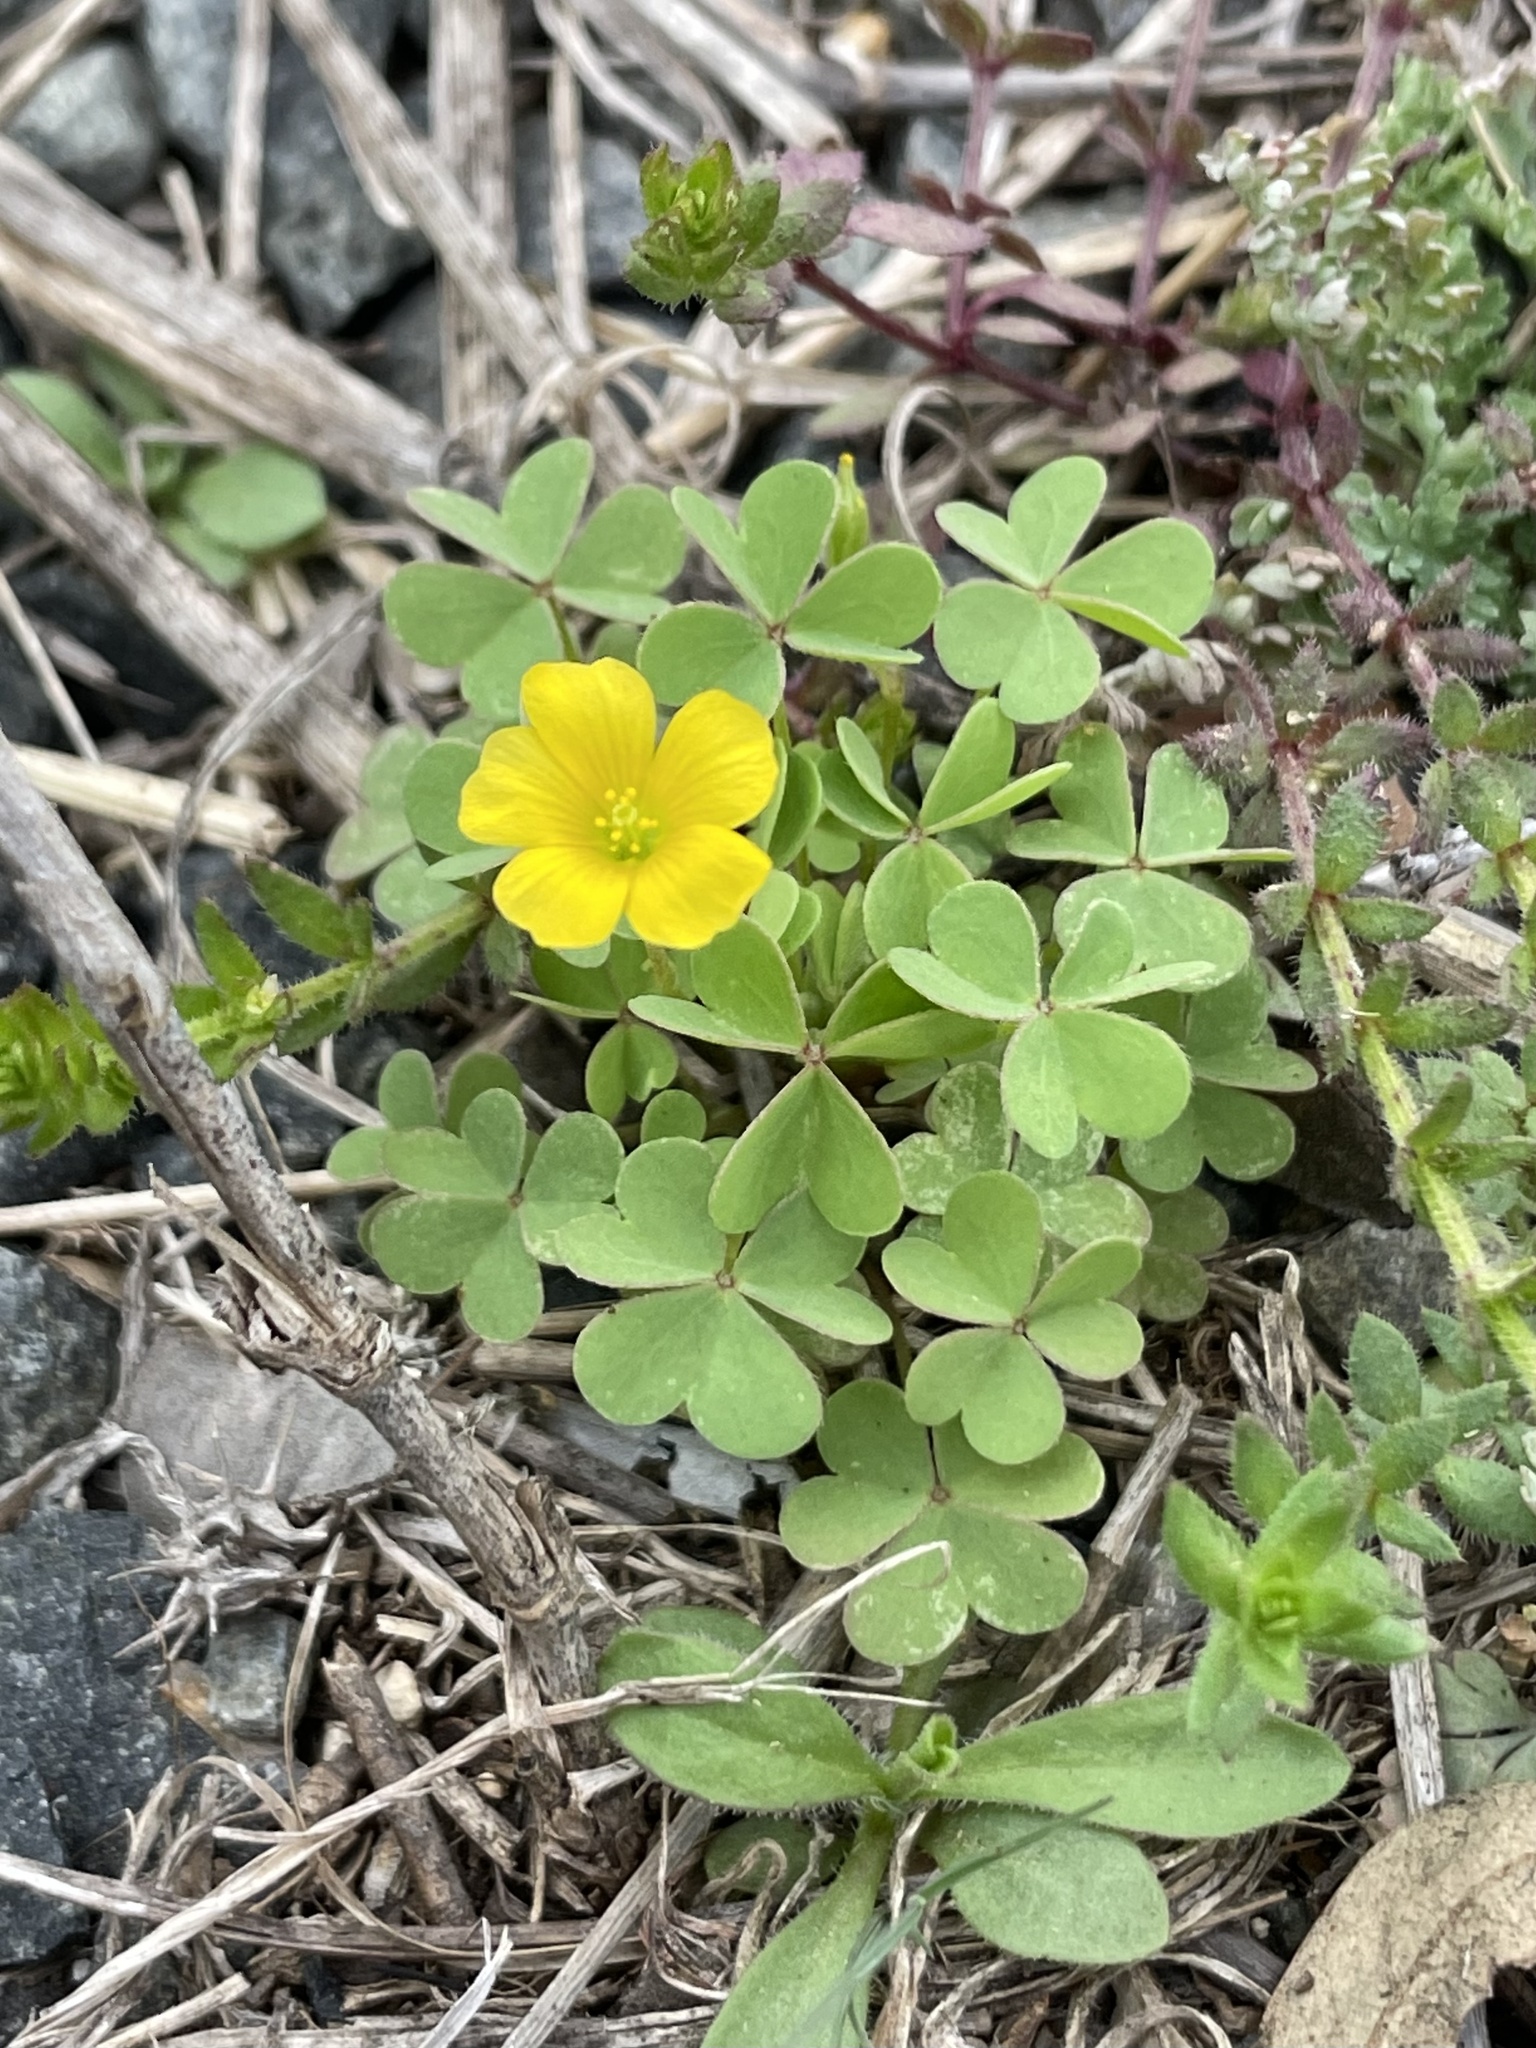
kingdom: Plantae
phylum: Tracheophyta
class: Magnoliopsida
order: Oxalidales
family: Oxalidaceae
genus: Oxalis
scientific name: Oxalis dillenii
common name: Sussex yellow-sorrel
